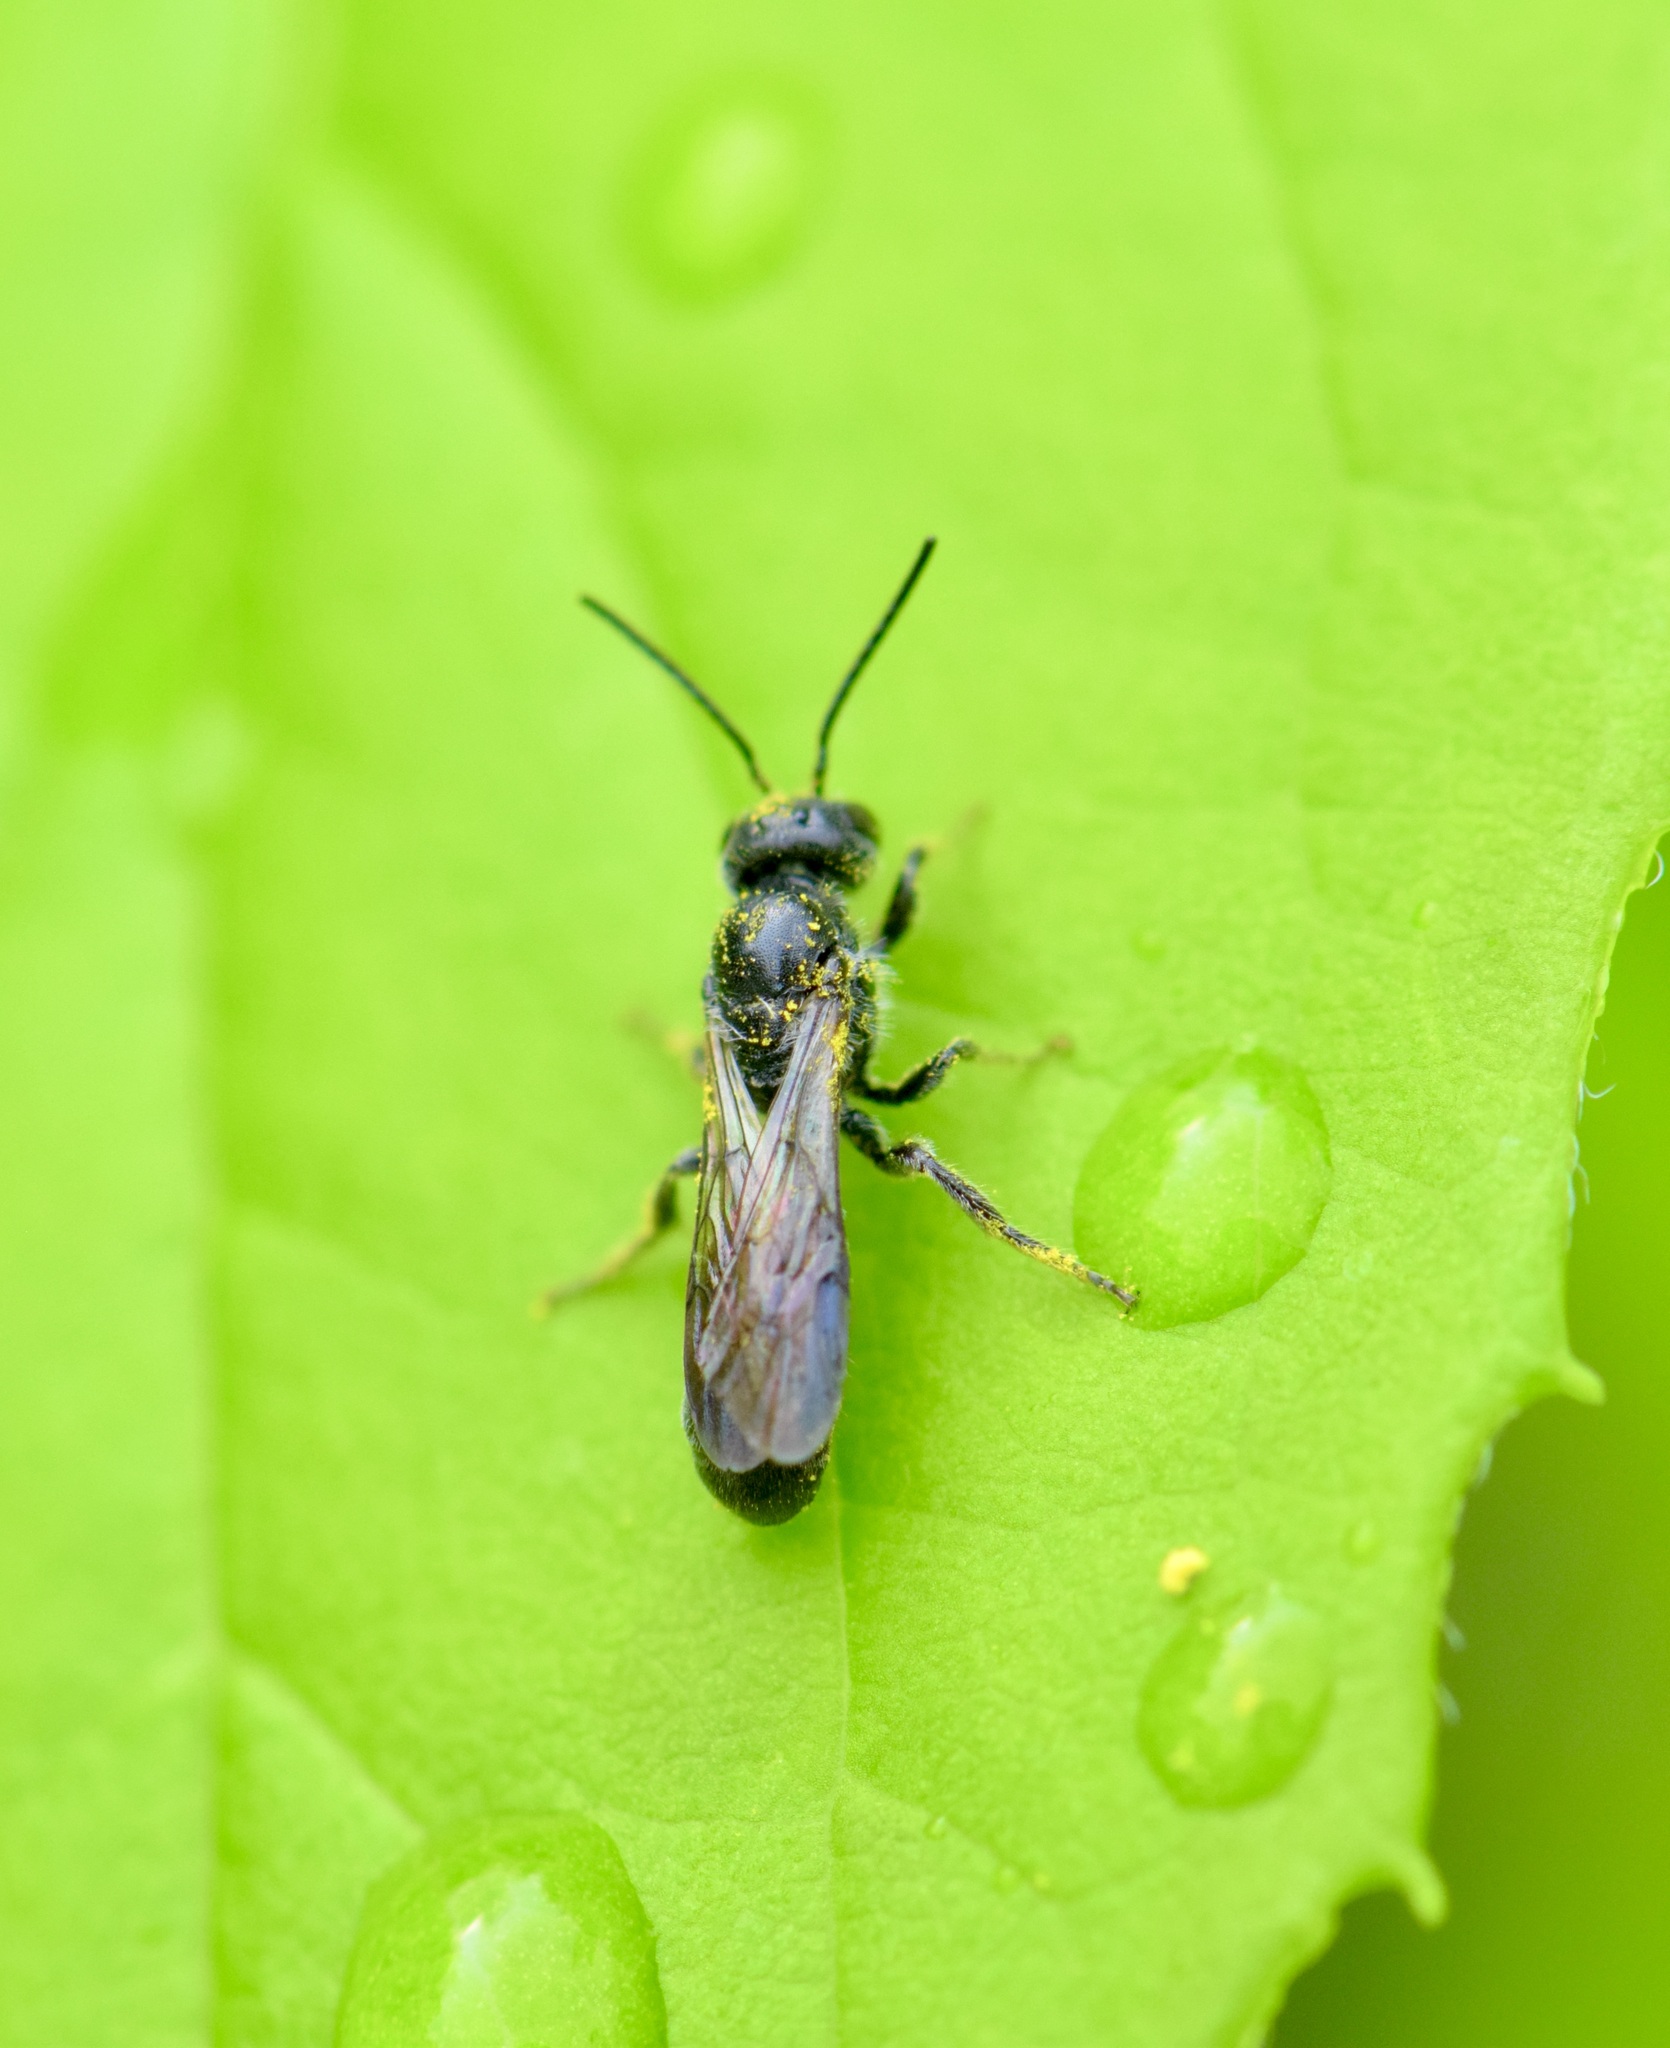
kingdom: Animalia
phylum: Arthropoda
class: Insecta
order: Hymenoptera
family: Megachilidae
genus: Chelostoma
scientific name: Chelostoma philadelphi
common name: Mock-orange scissor bee
